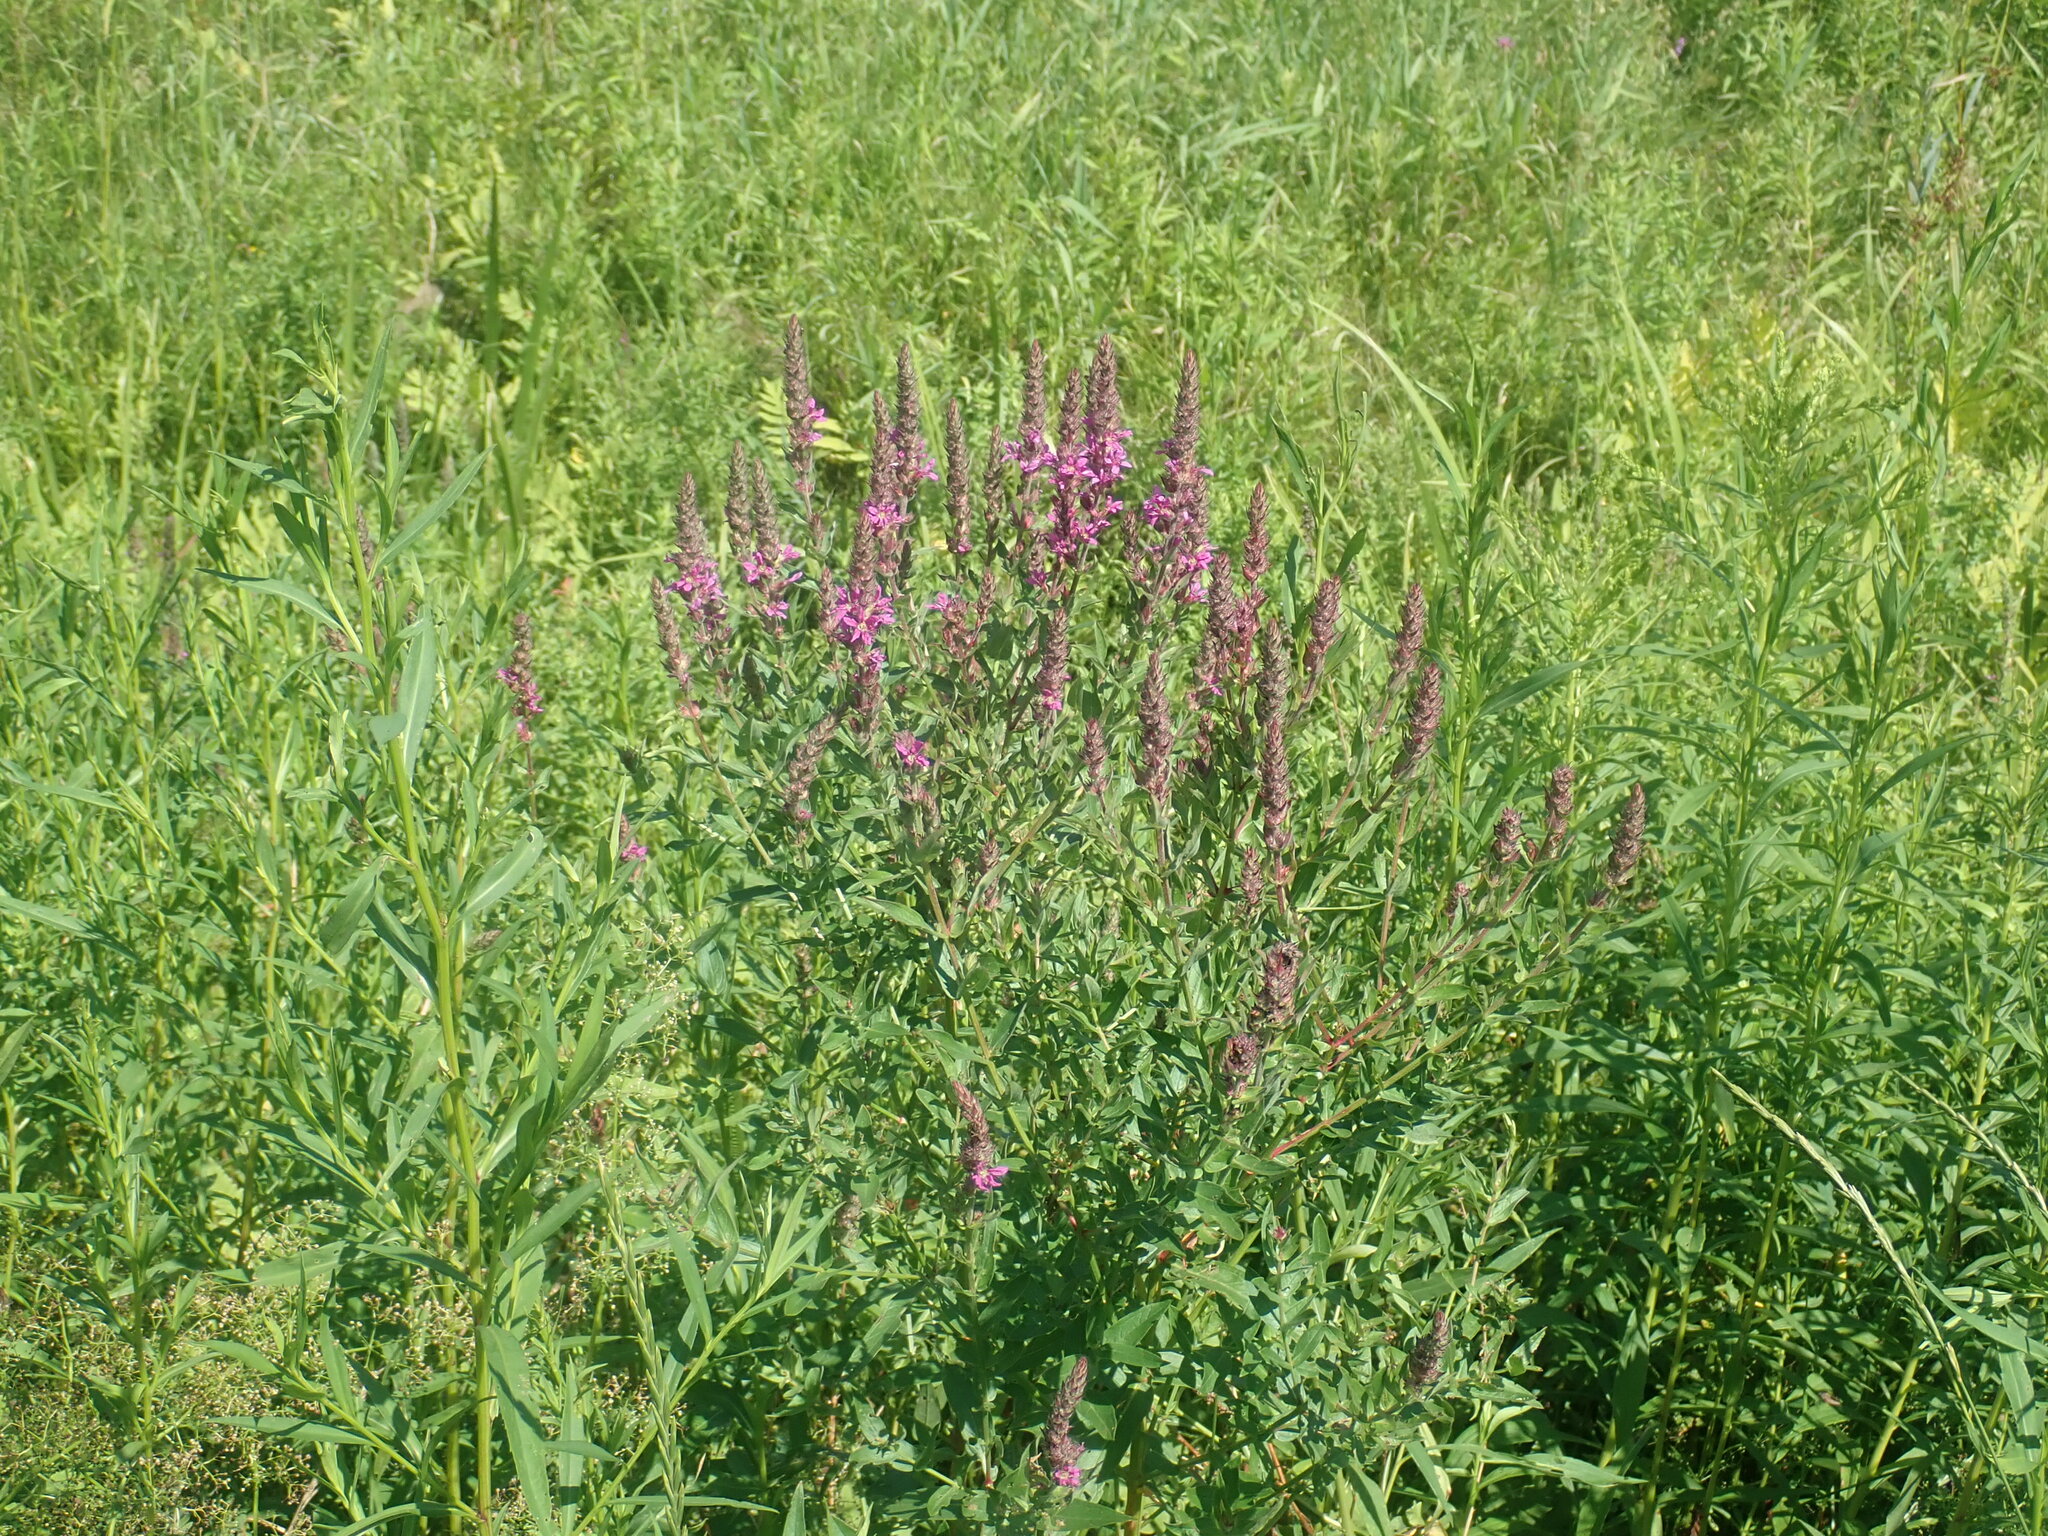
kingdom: Plantae
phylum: Tracheophyta
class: Magnoliopsida
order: Myrtales
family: Lythraceae
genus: Lythrum
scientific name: Lythrum salicaria
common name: Purple loosestrife
